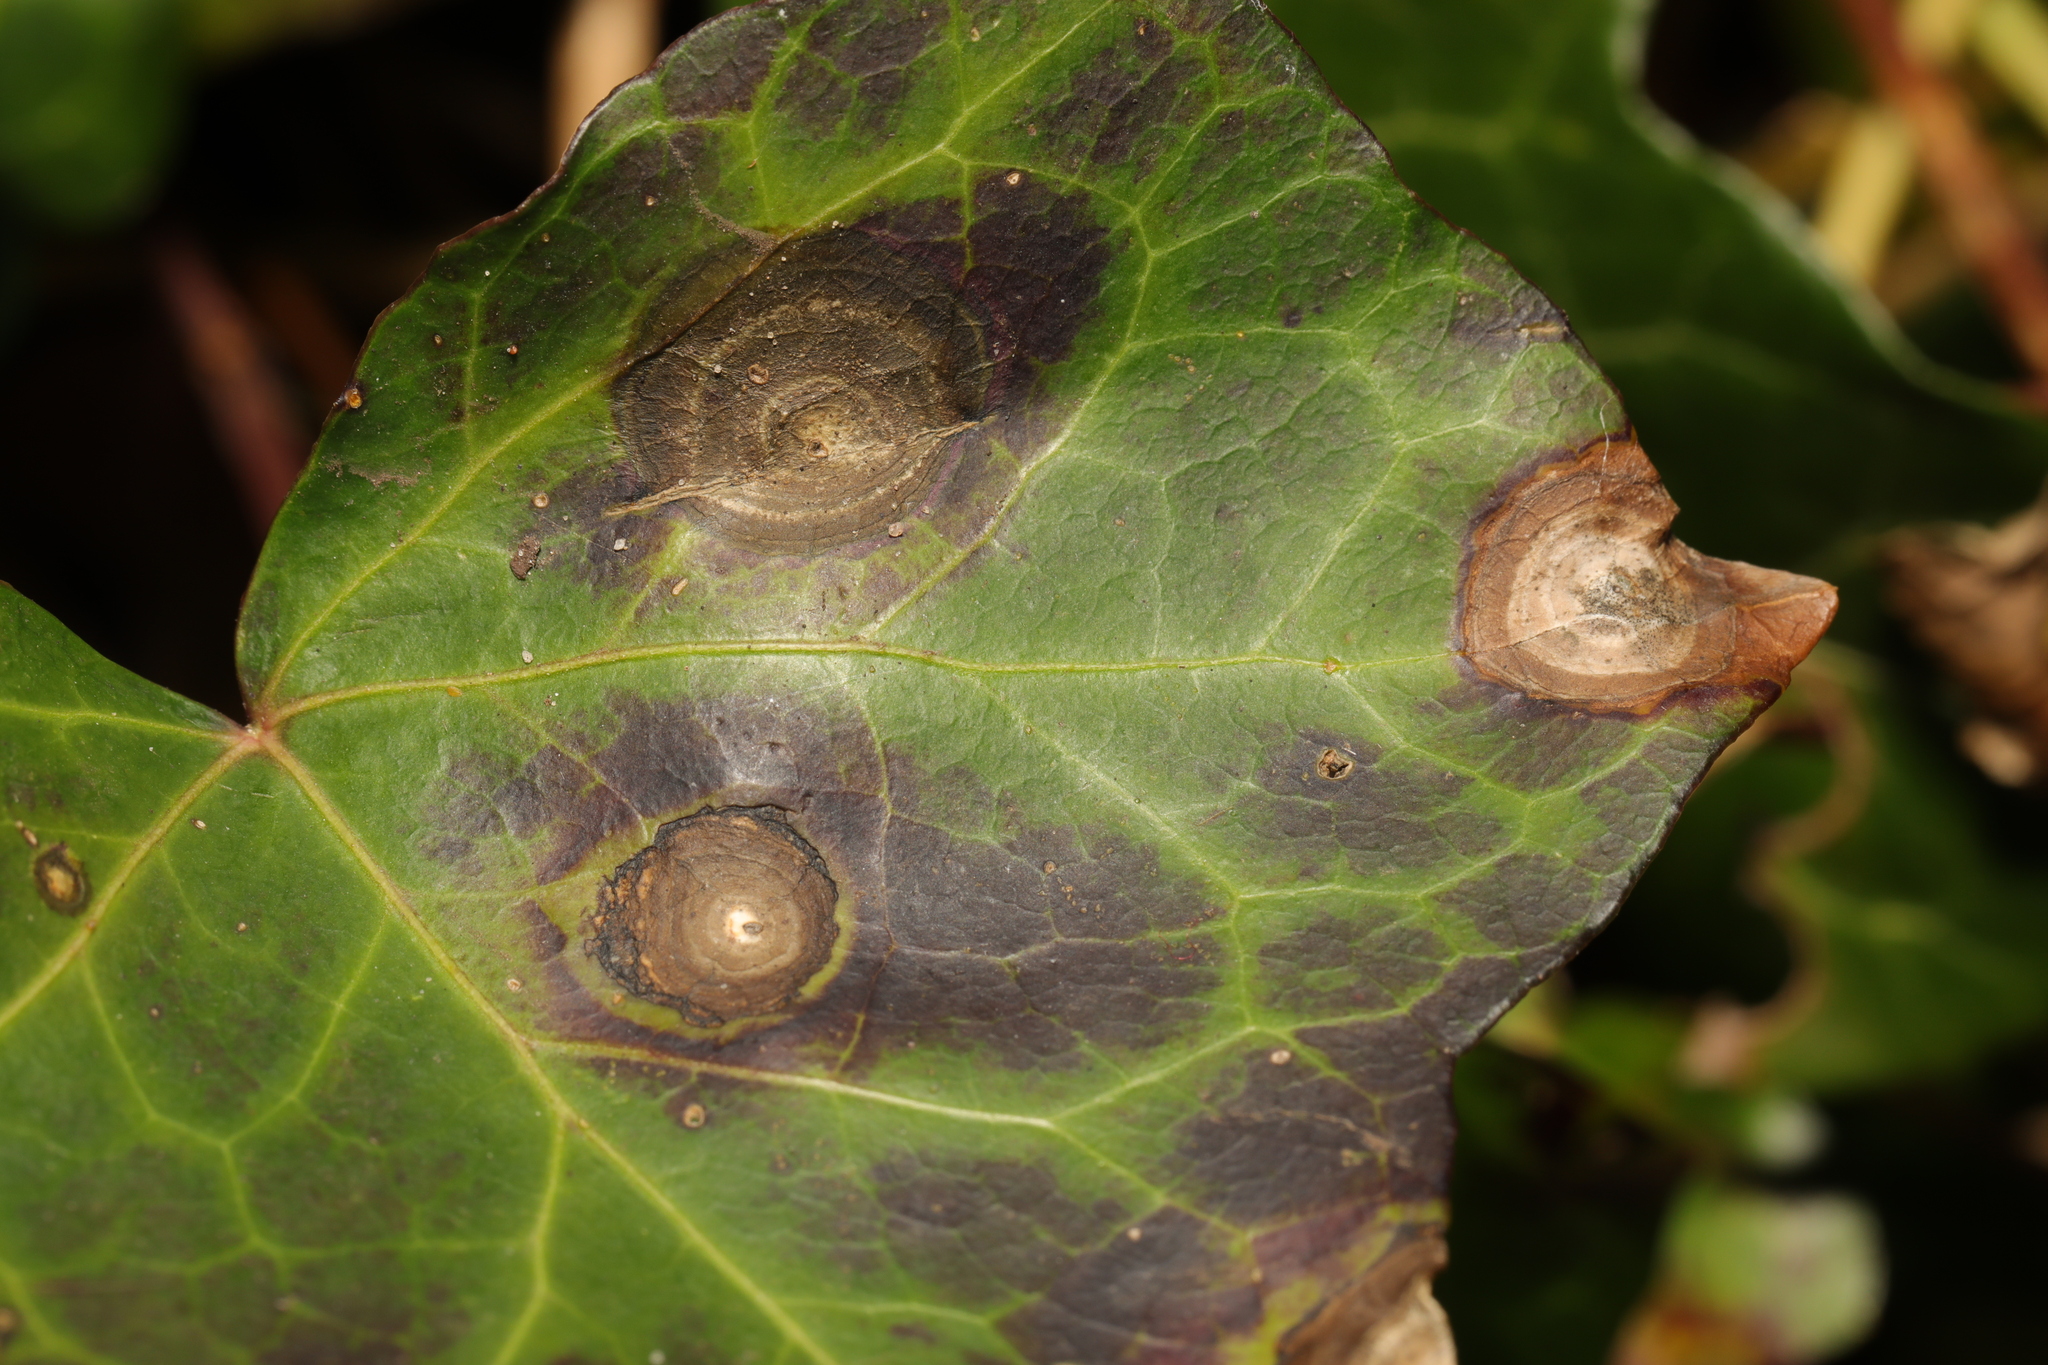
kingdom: Fungi
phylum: Ascomycota
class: Dothideomycetes
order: Pleosporales
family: Didymellaceae
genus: Boeremia
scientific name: Boeremia hedericola
